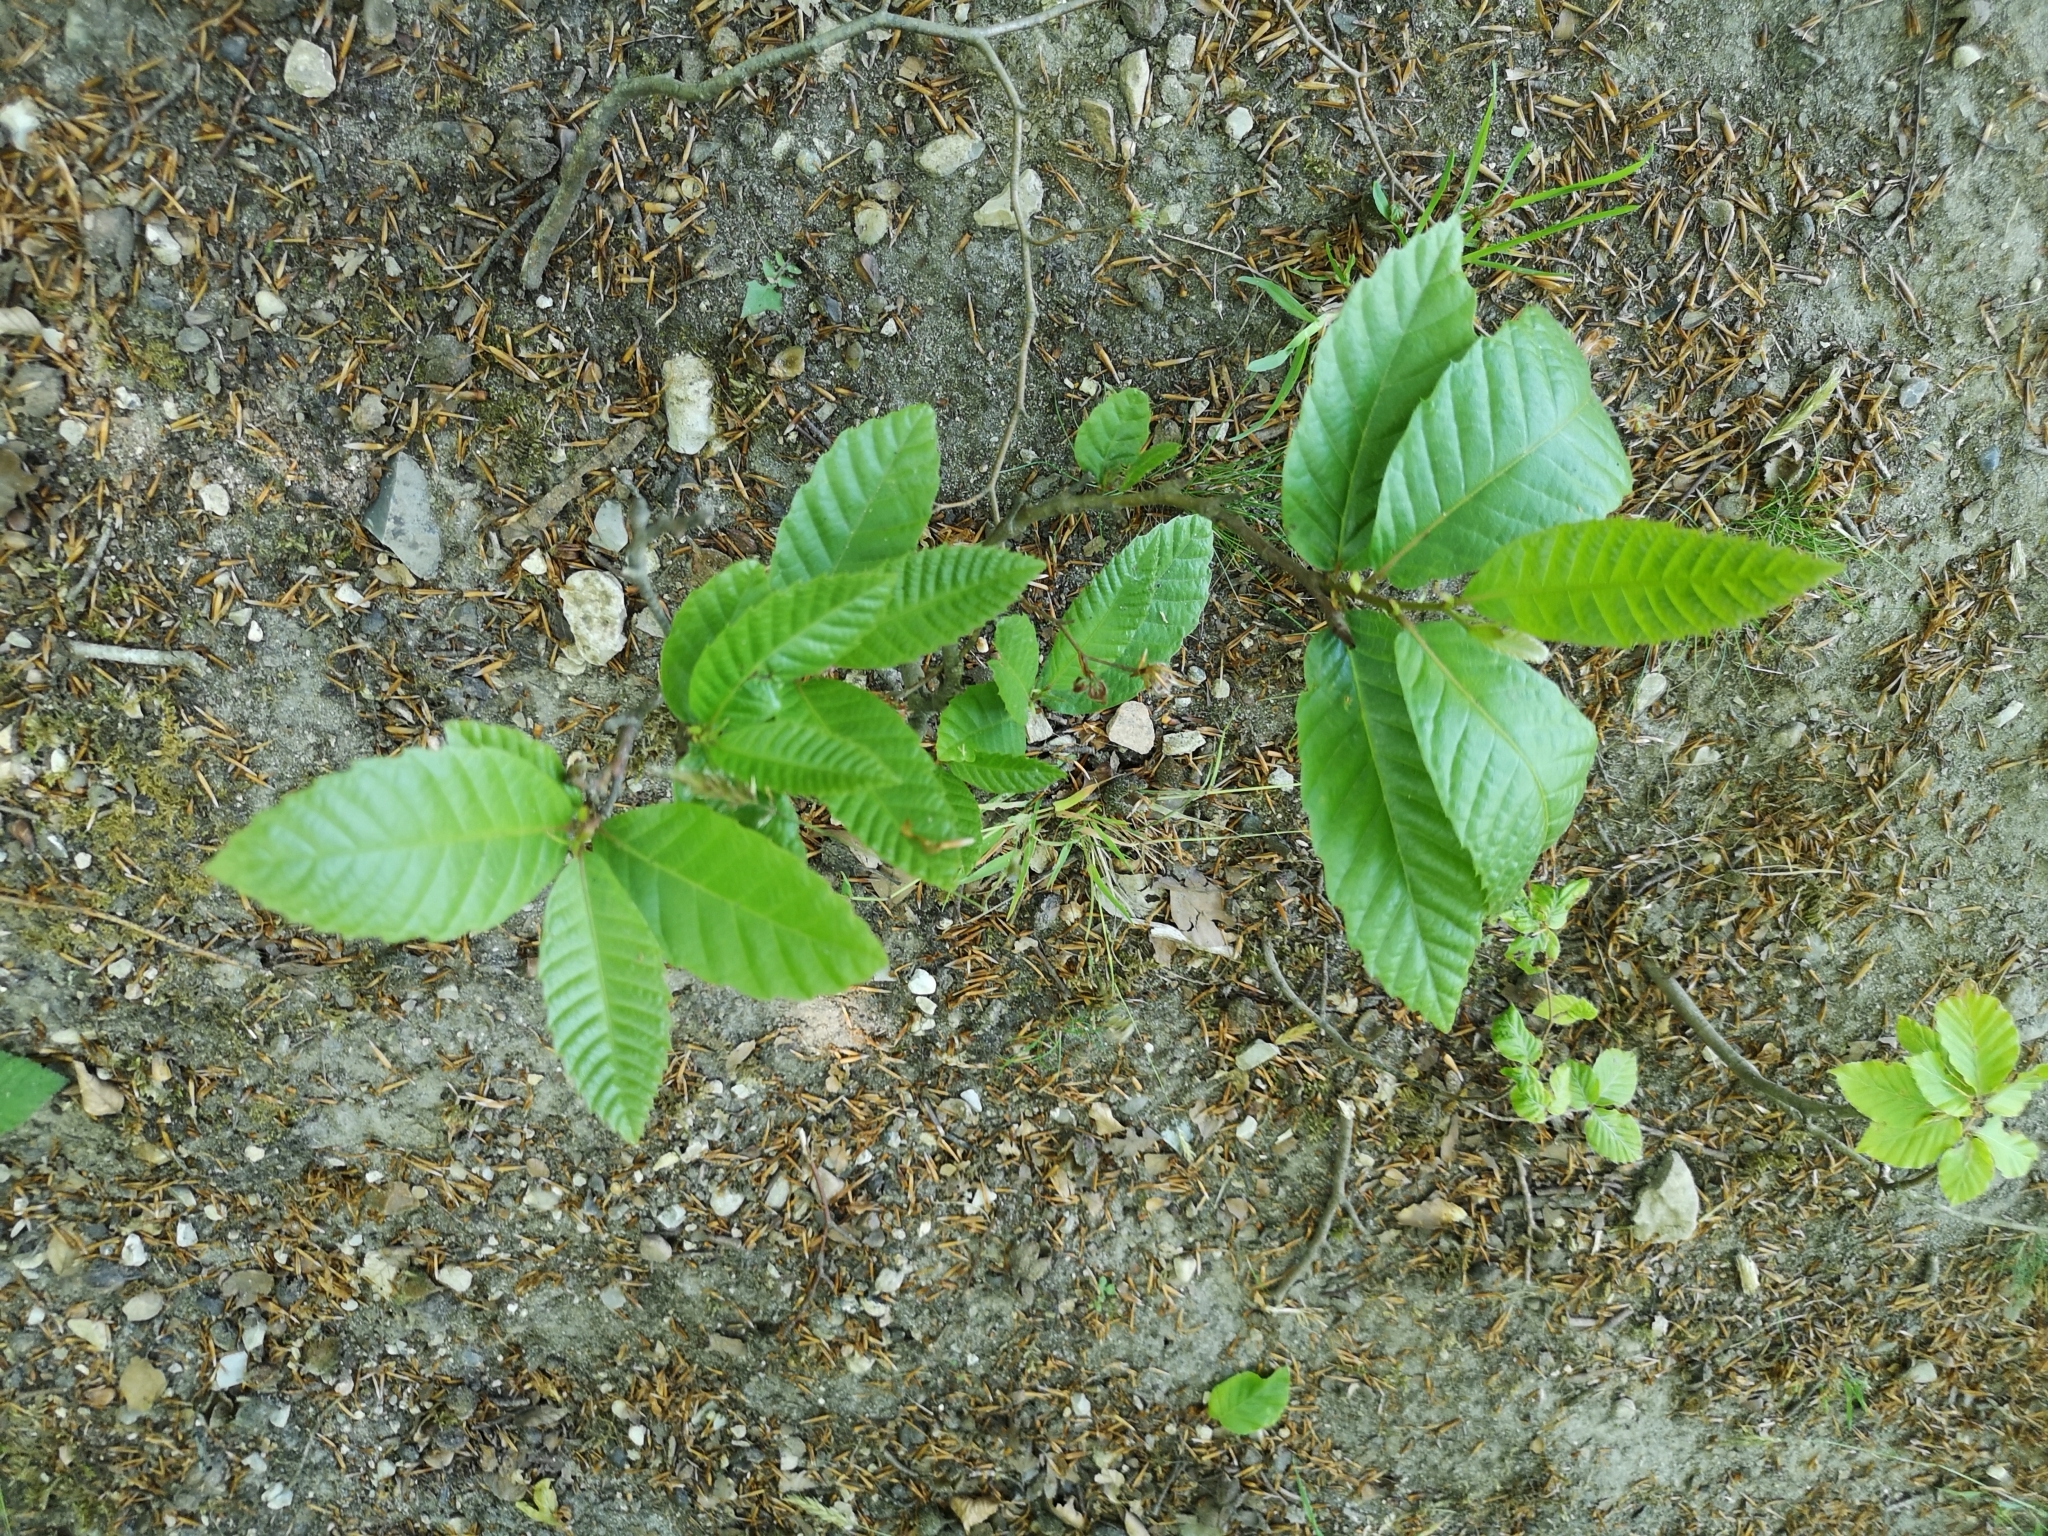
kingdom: Plantae
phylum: Tracheophyta
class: Magnoliopsida
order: Fagales
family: Fagaceae
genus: Castanea
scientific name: Castanea sativa
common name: Sweet chestnut
